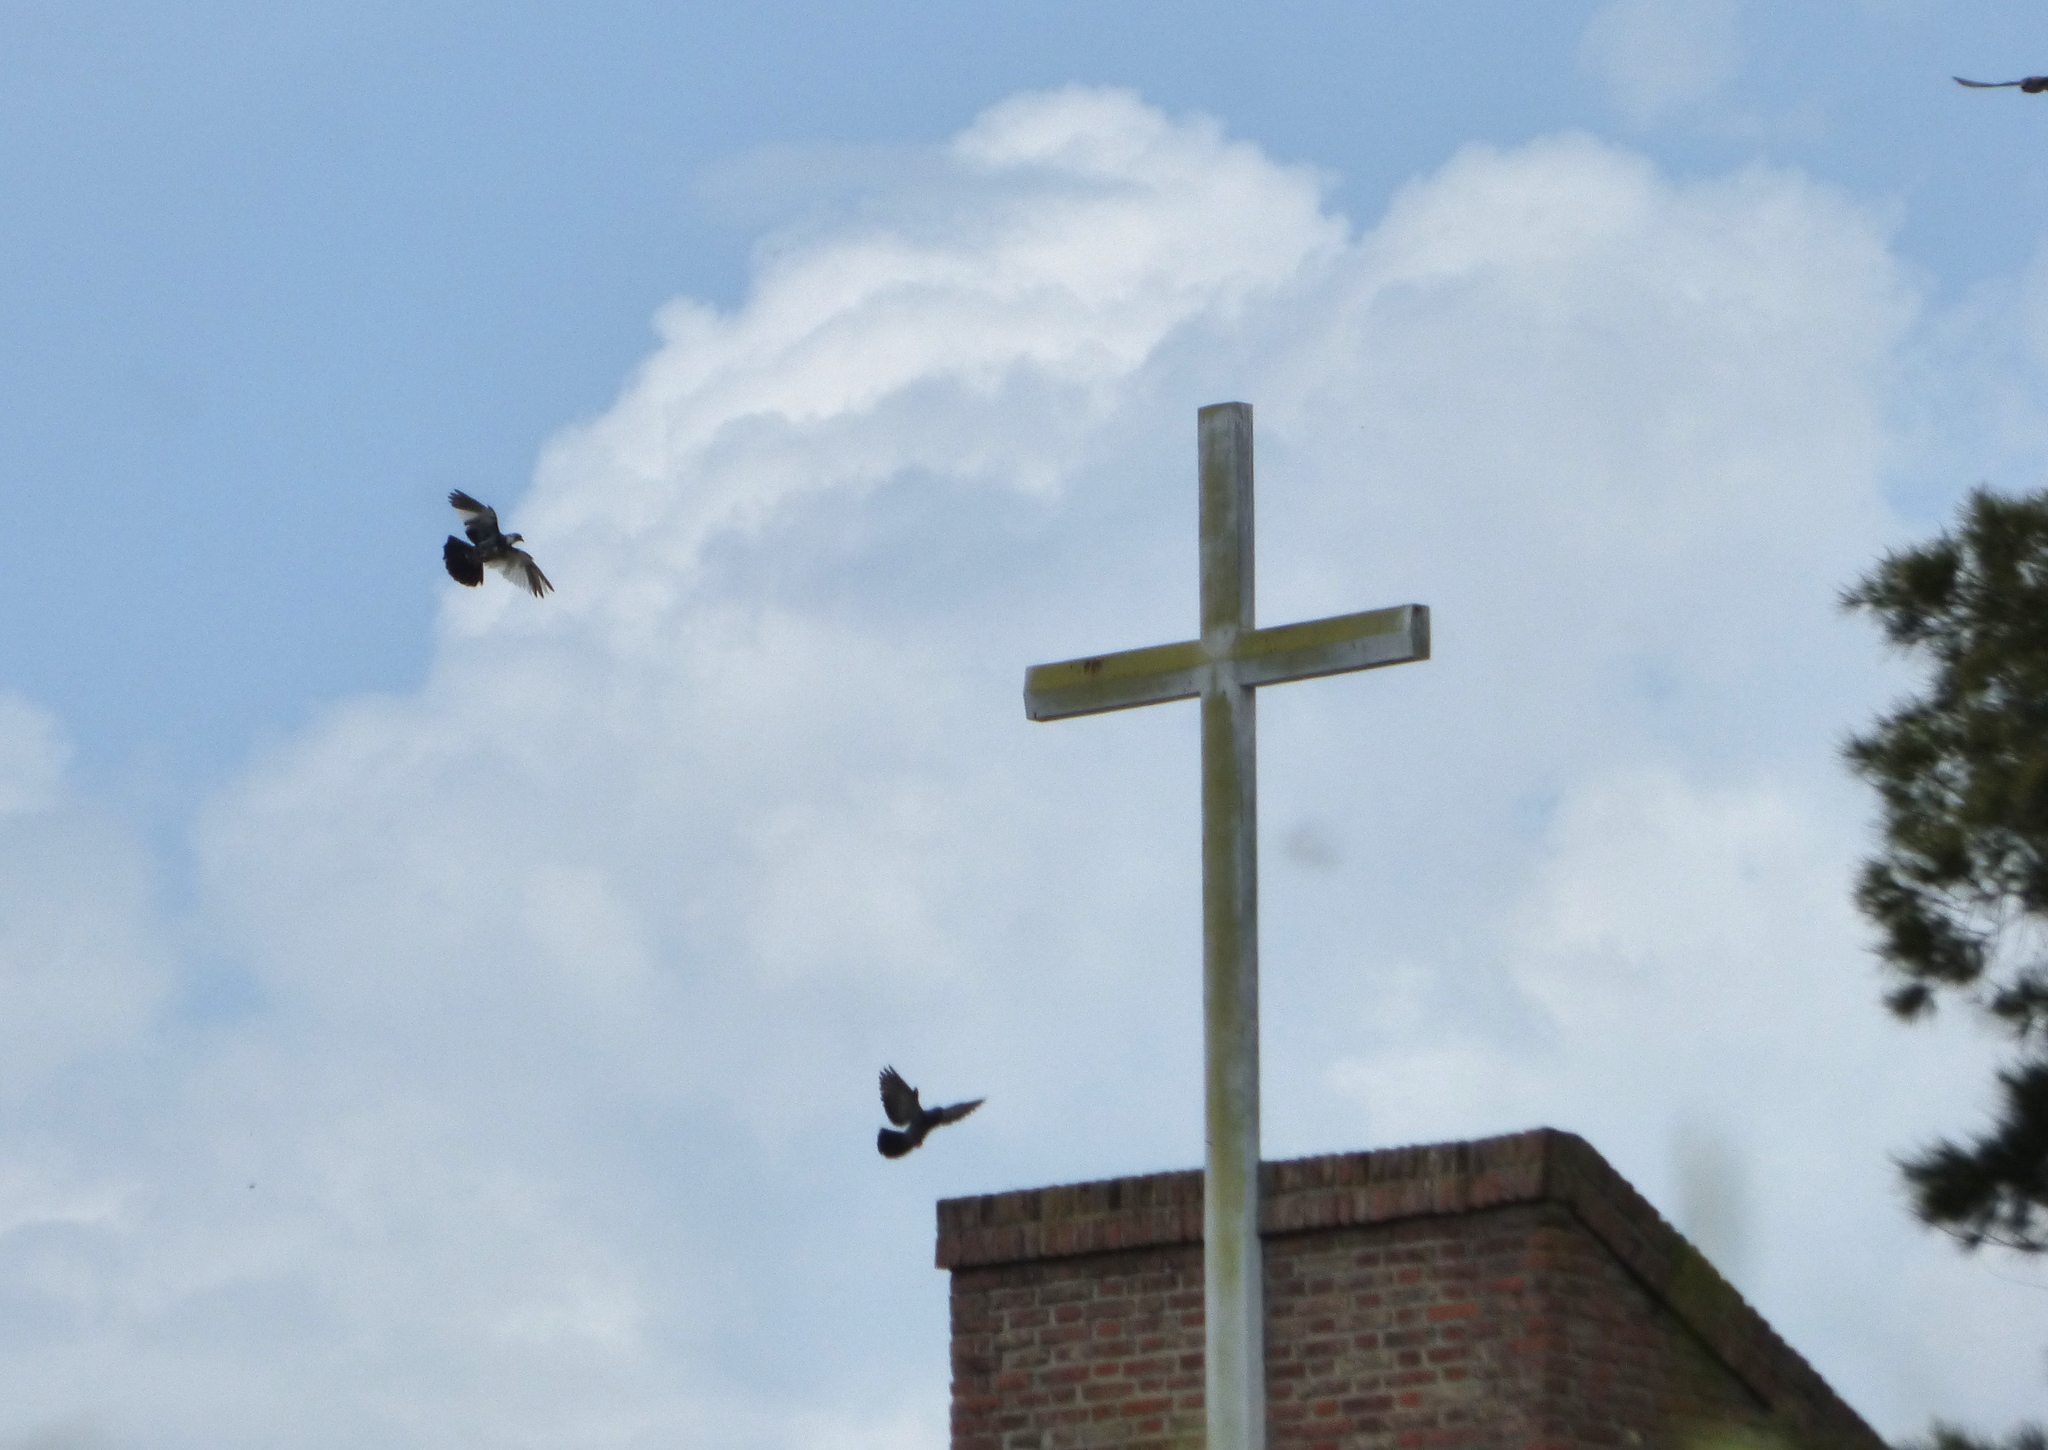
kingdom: Animalia
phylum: Chordata
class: Aves
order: Columbiformes
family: Columbidae
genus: Columba
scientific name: Columba livia
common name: Rock pigeon
